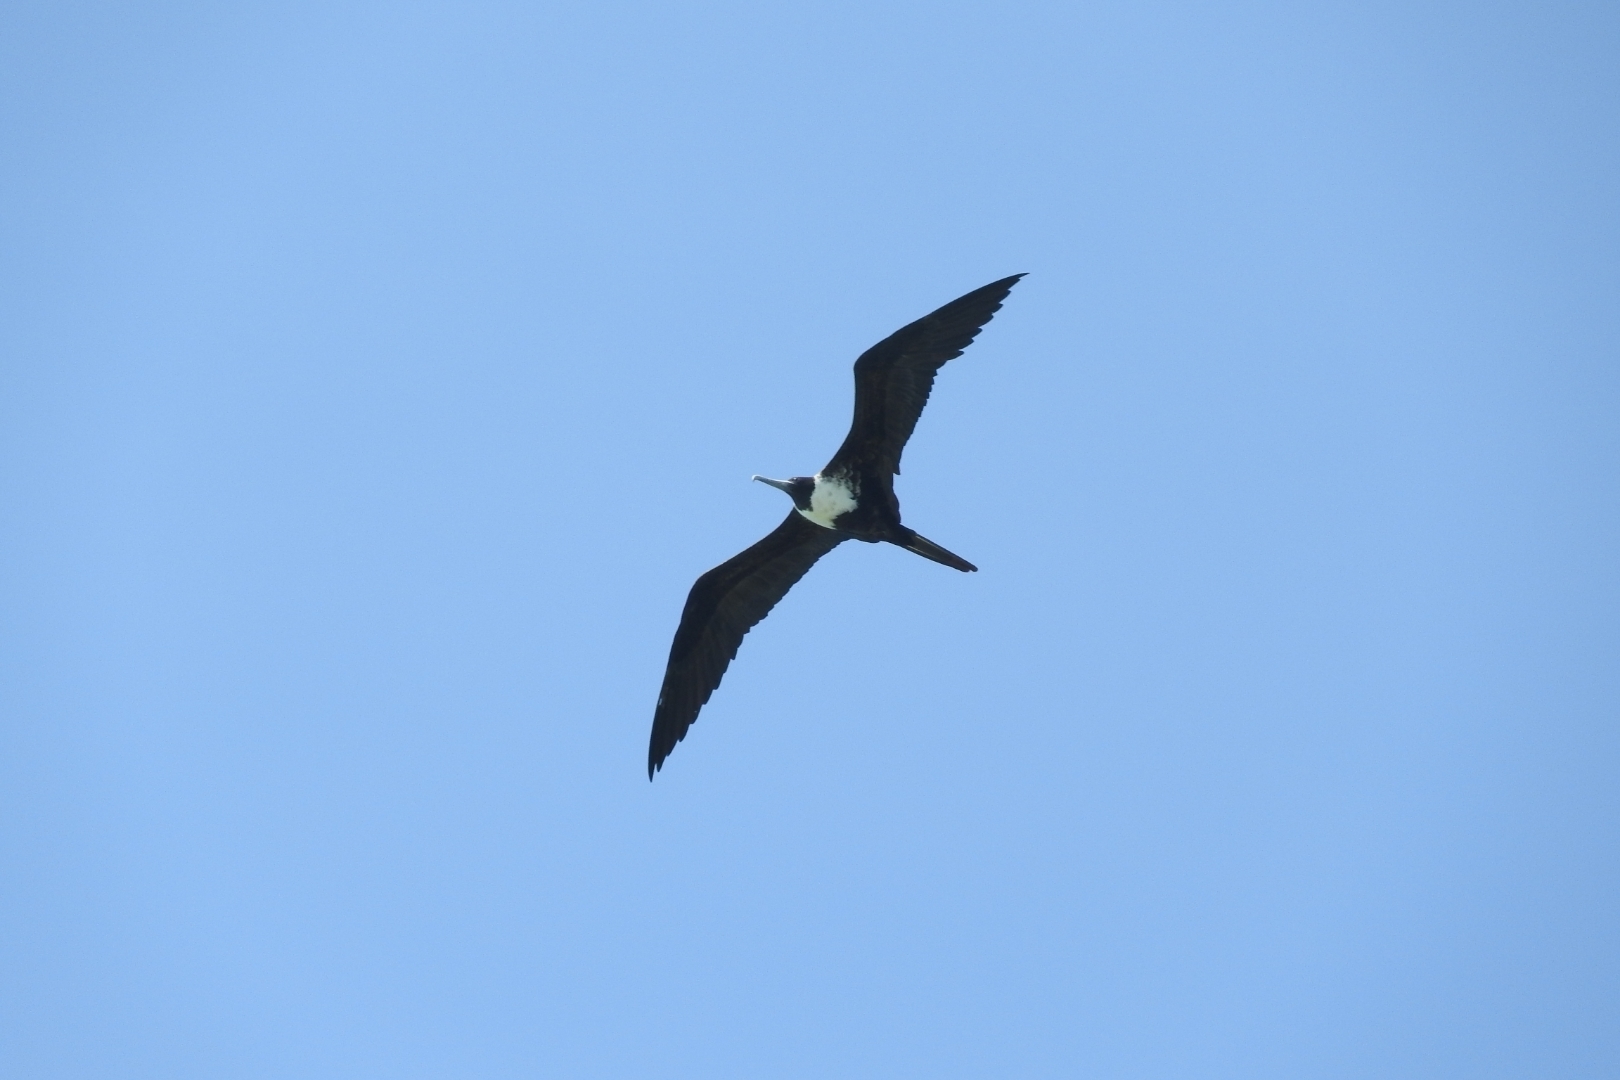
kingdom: Animalia
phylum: Chordata
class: Aves
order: Suliformes
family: Fregatidae
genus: Fregata
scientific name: Fregata magnificens
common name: Magnificent frigatebird
